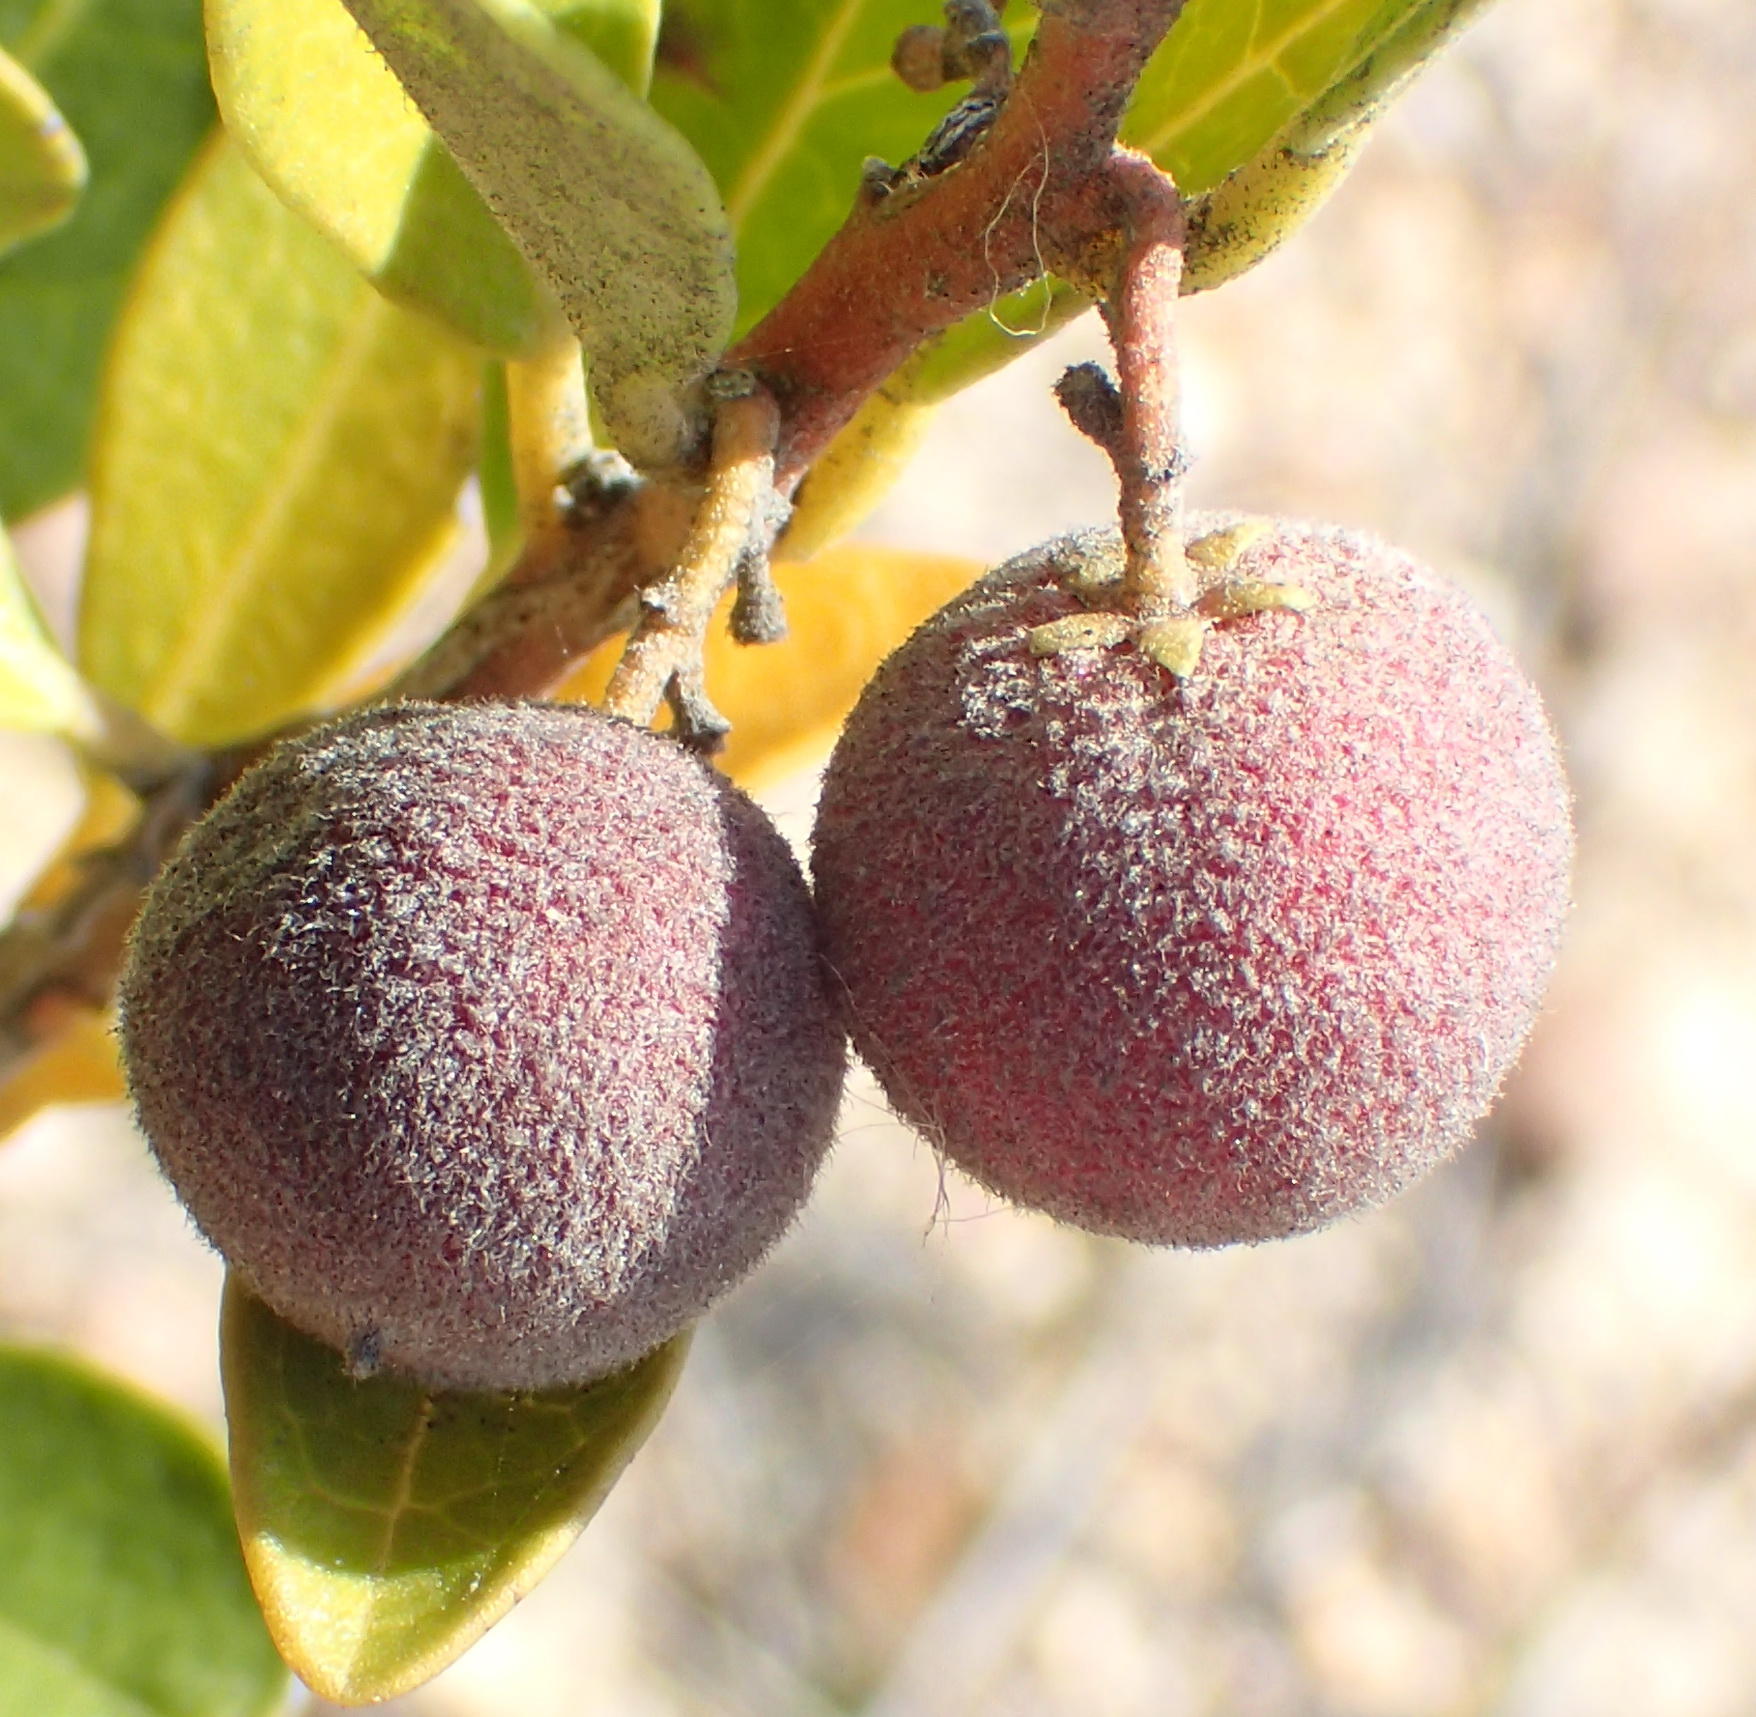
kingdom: Plantae
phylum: Tracheophyta
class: Magnoliopsida
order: Ericales
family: Ebenaceae
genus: Euclea
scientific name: Euclea polyandra
